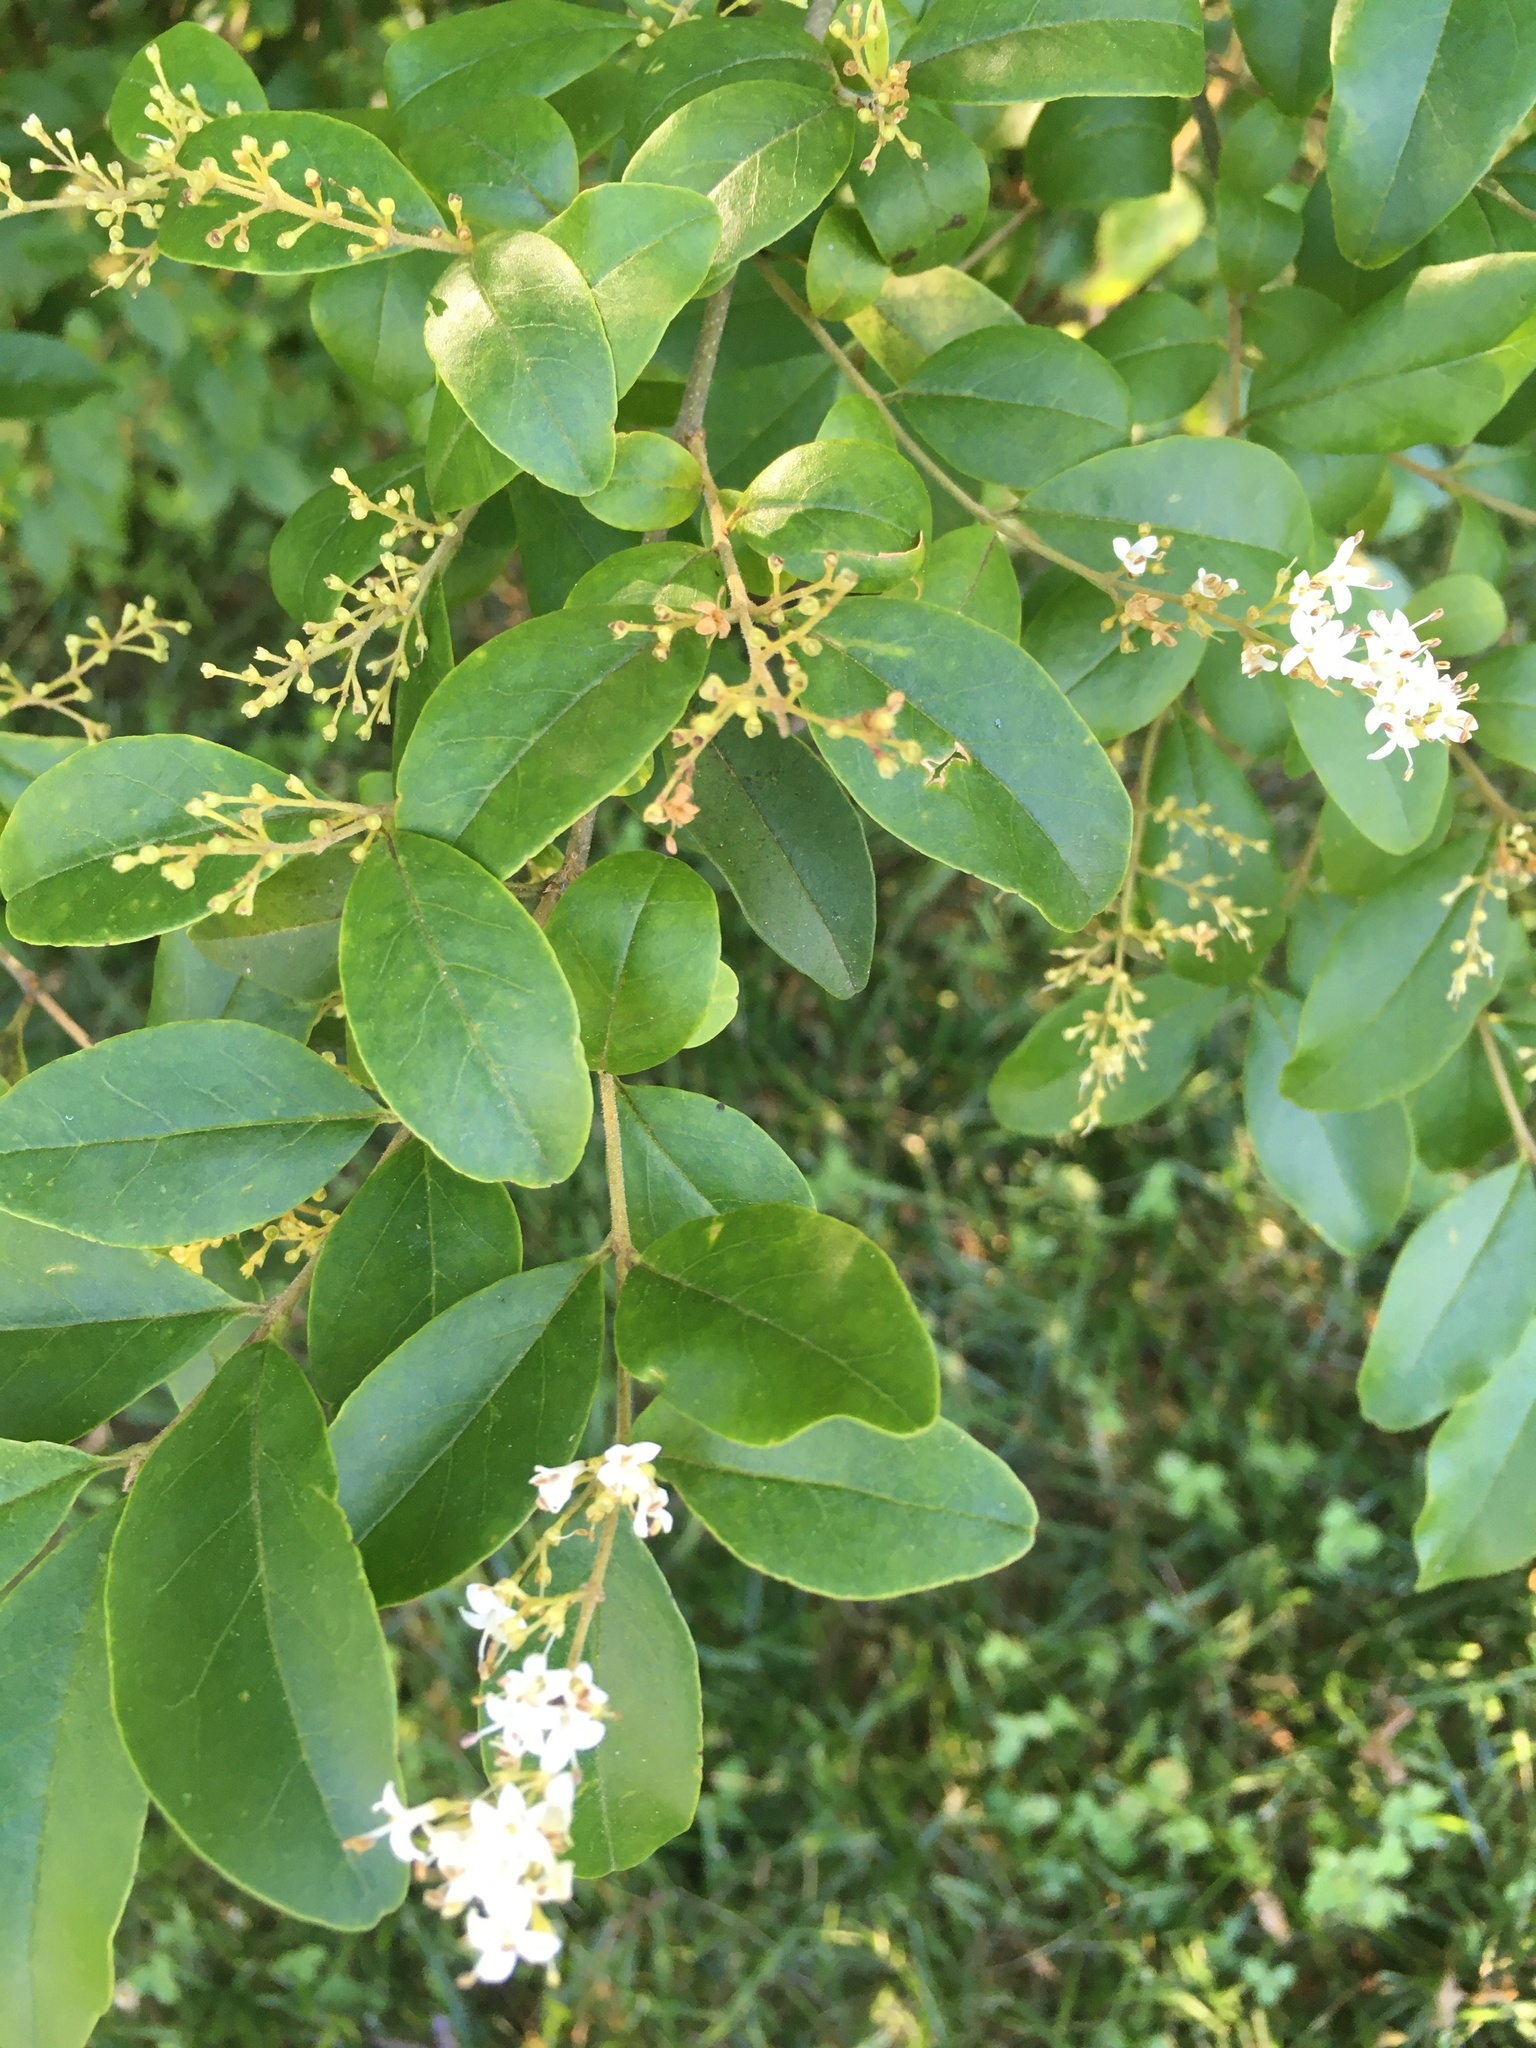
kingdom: Plantae
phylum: Tracheophyta
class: Magnoliopsida
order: Lamiales
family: Oleaceae
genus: Ligustrum
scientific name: Ligustrum sinense
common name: Chinese privet
